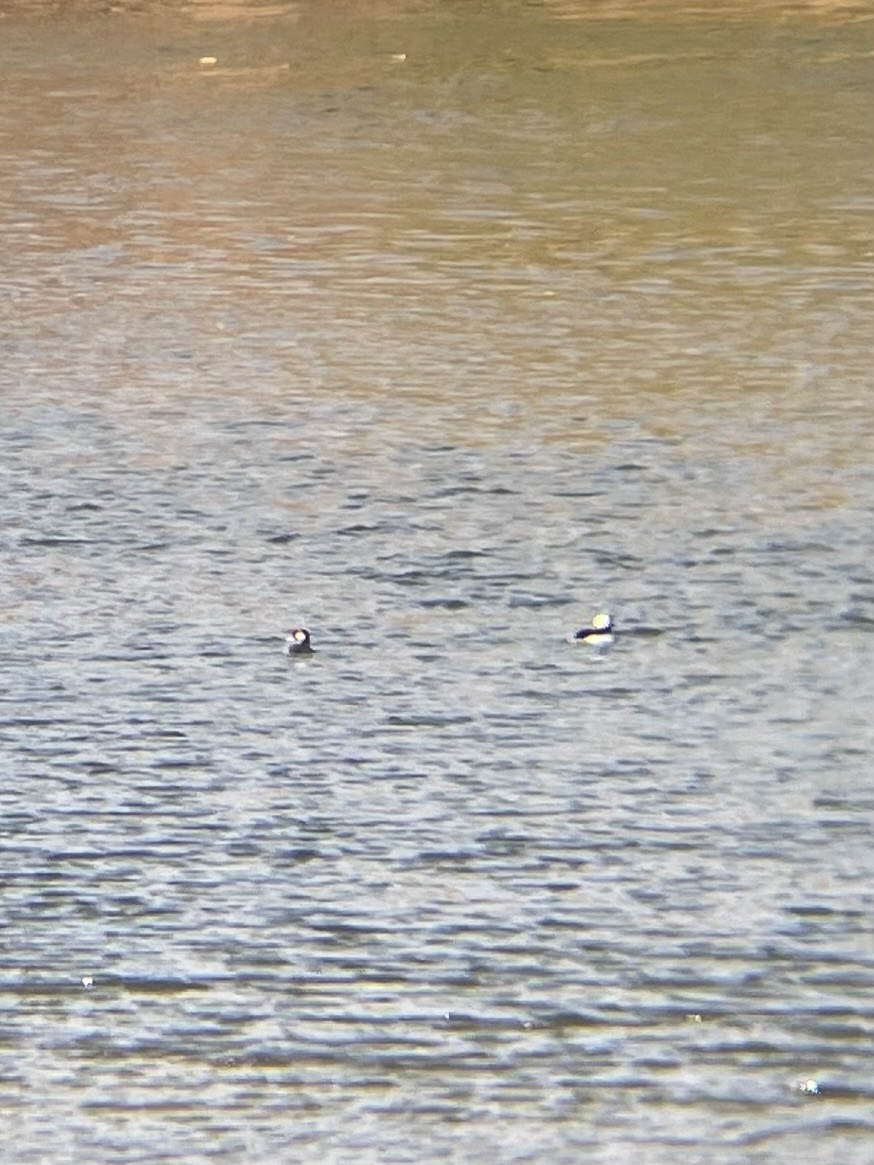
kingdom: Animalia
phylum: Chordata
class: Aves
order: Anseriformes
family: Anatidae
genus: Bucephala
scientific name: Bucephala albeola
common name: Bufflehead
